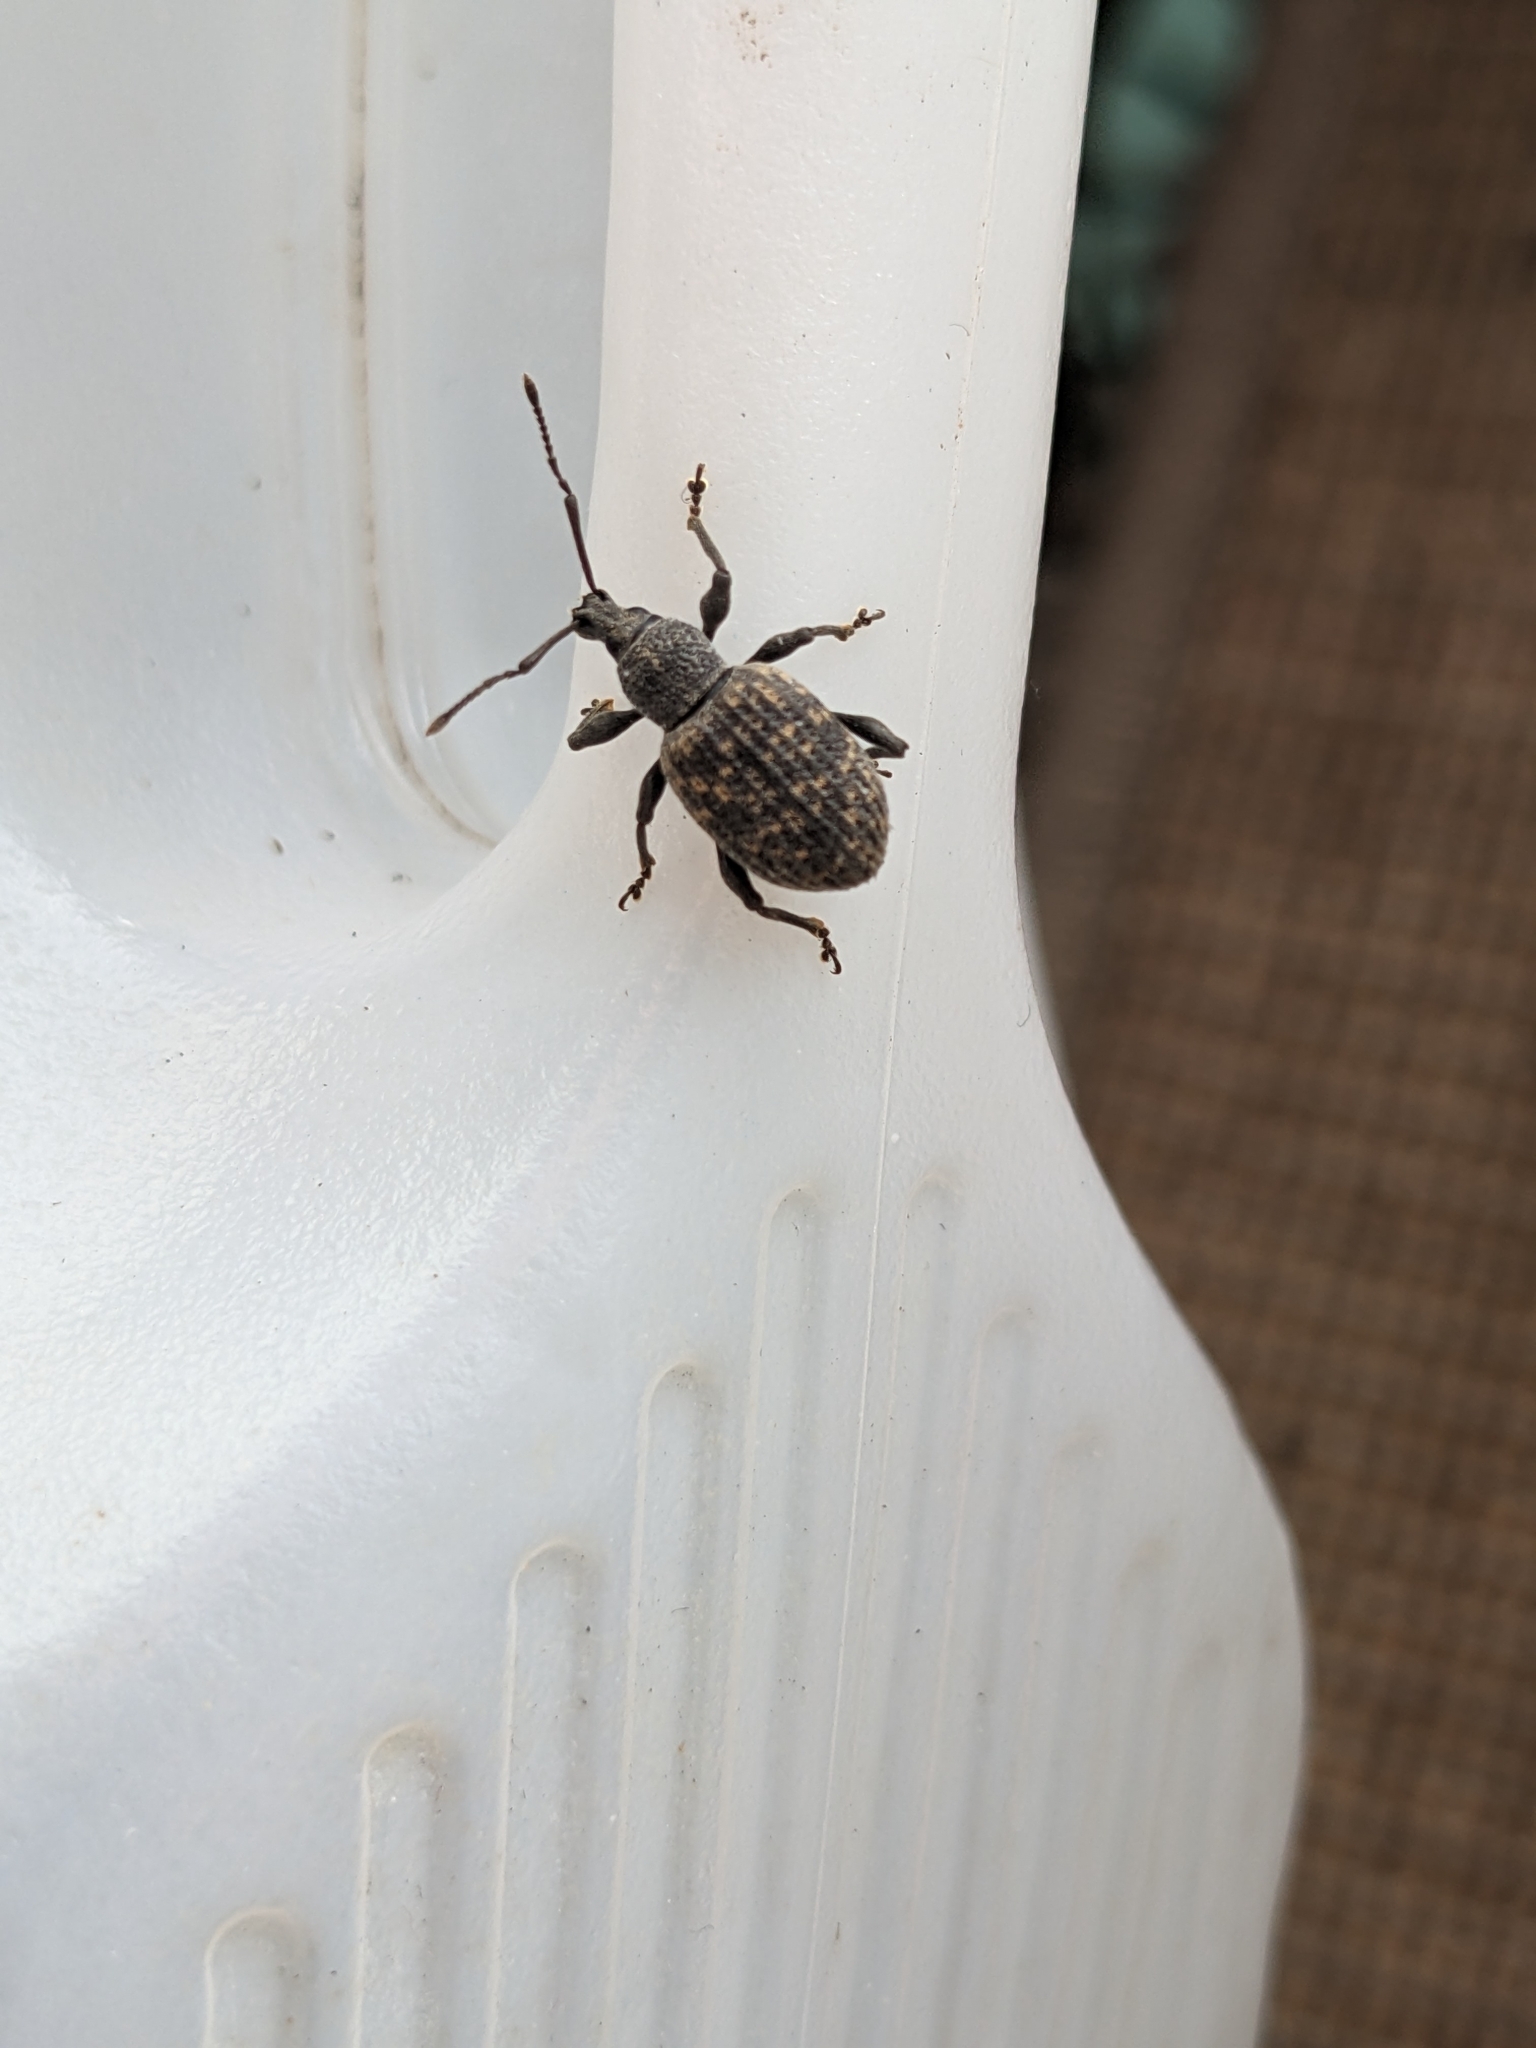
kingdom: Animalia
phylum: Arthropoda
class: Insecta
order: Coleoptera
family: Curculionidae
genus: Otiorhynchus
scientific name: Otiorhynchus sulcatus
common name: Black vine weevil
